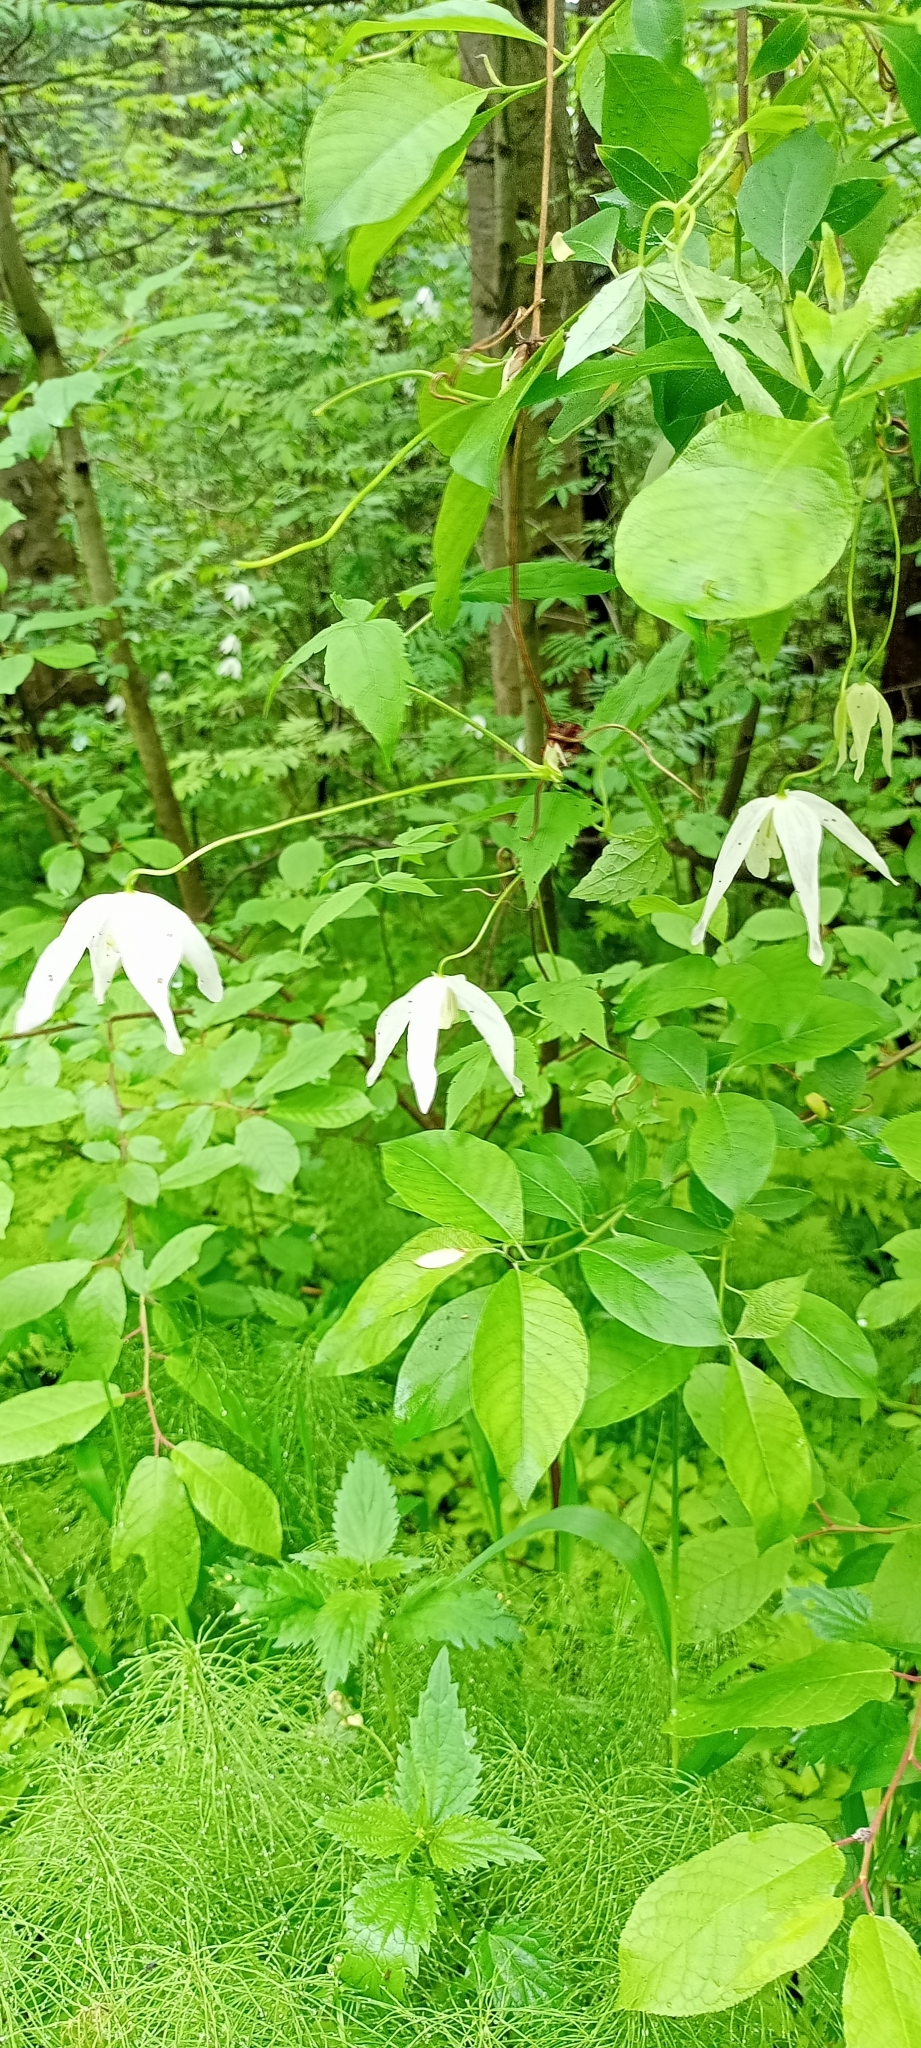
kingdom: Plantae
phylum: Tracheophyta
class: Magnoliopsida
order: Ranunculales
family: Ranunculaceae
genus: Clematis
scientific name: Clematis sibirica
